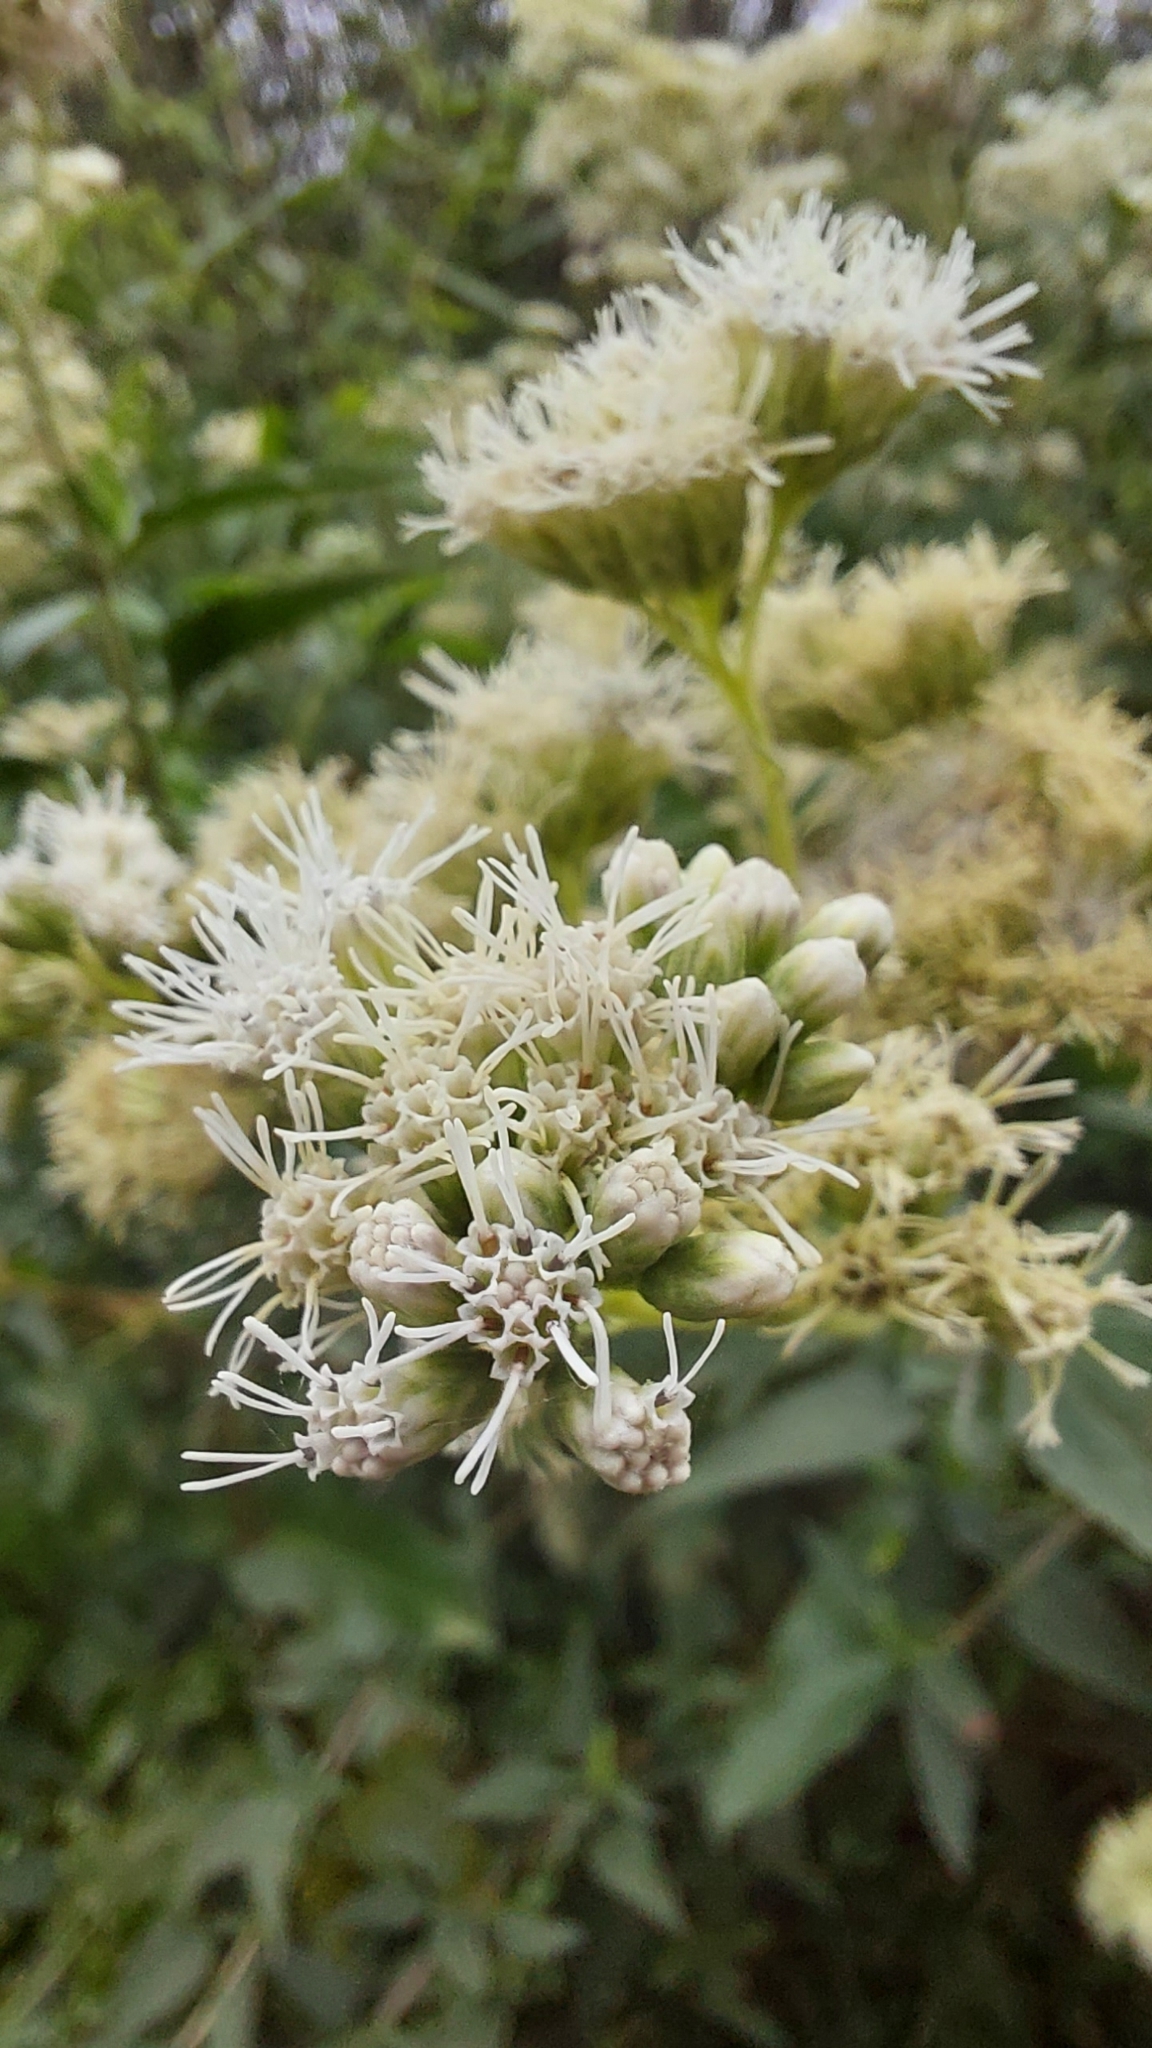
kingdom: Plantae
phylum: Tracheophyta
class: Magnoliopsida
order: Asterales
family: Asteraceae
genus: Austroeupatorium
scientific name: Austroeupatorium inulifolium
